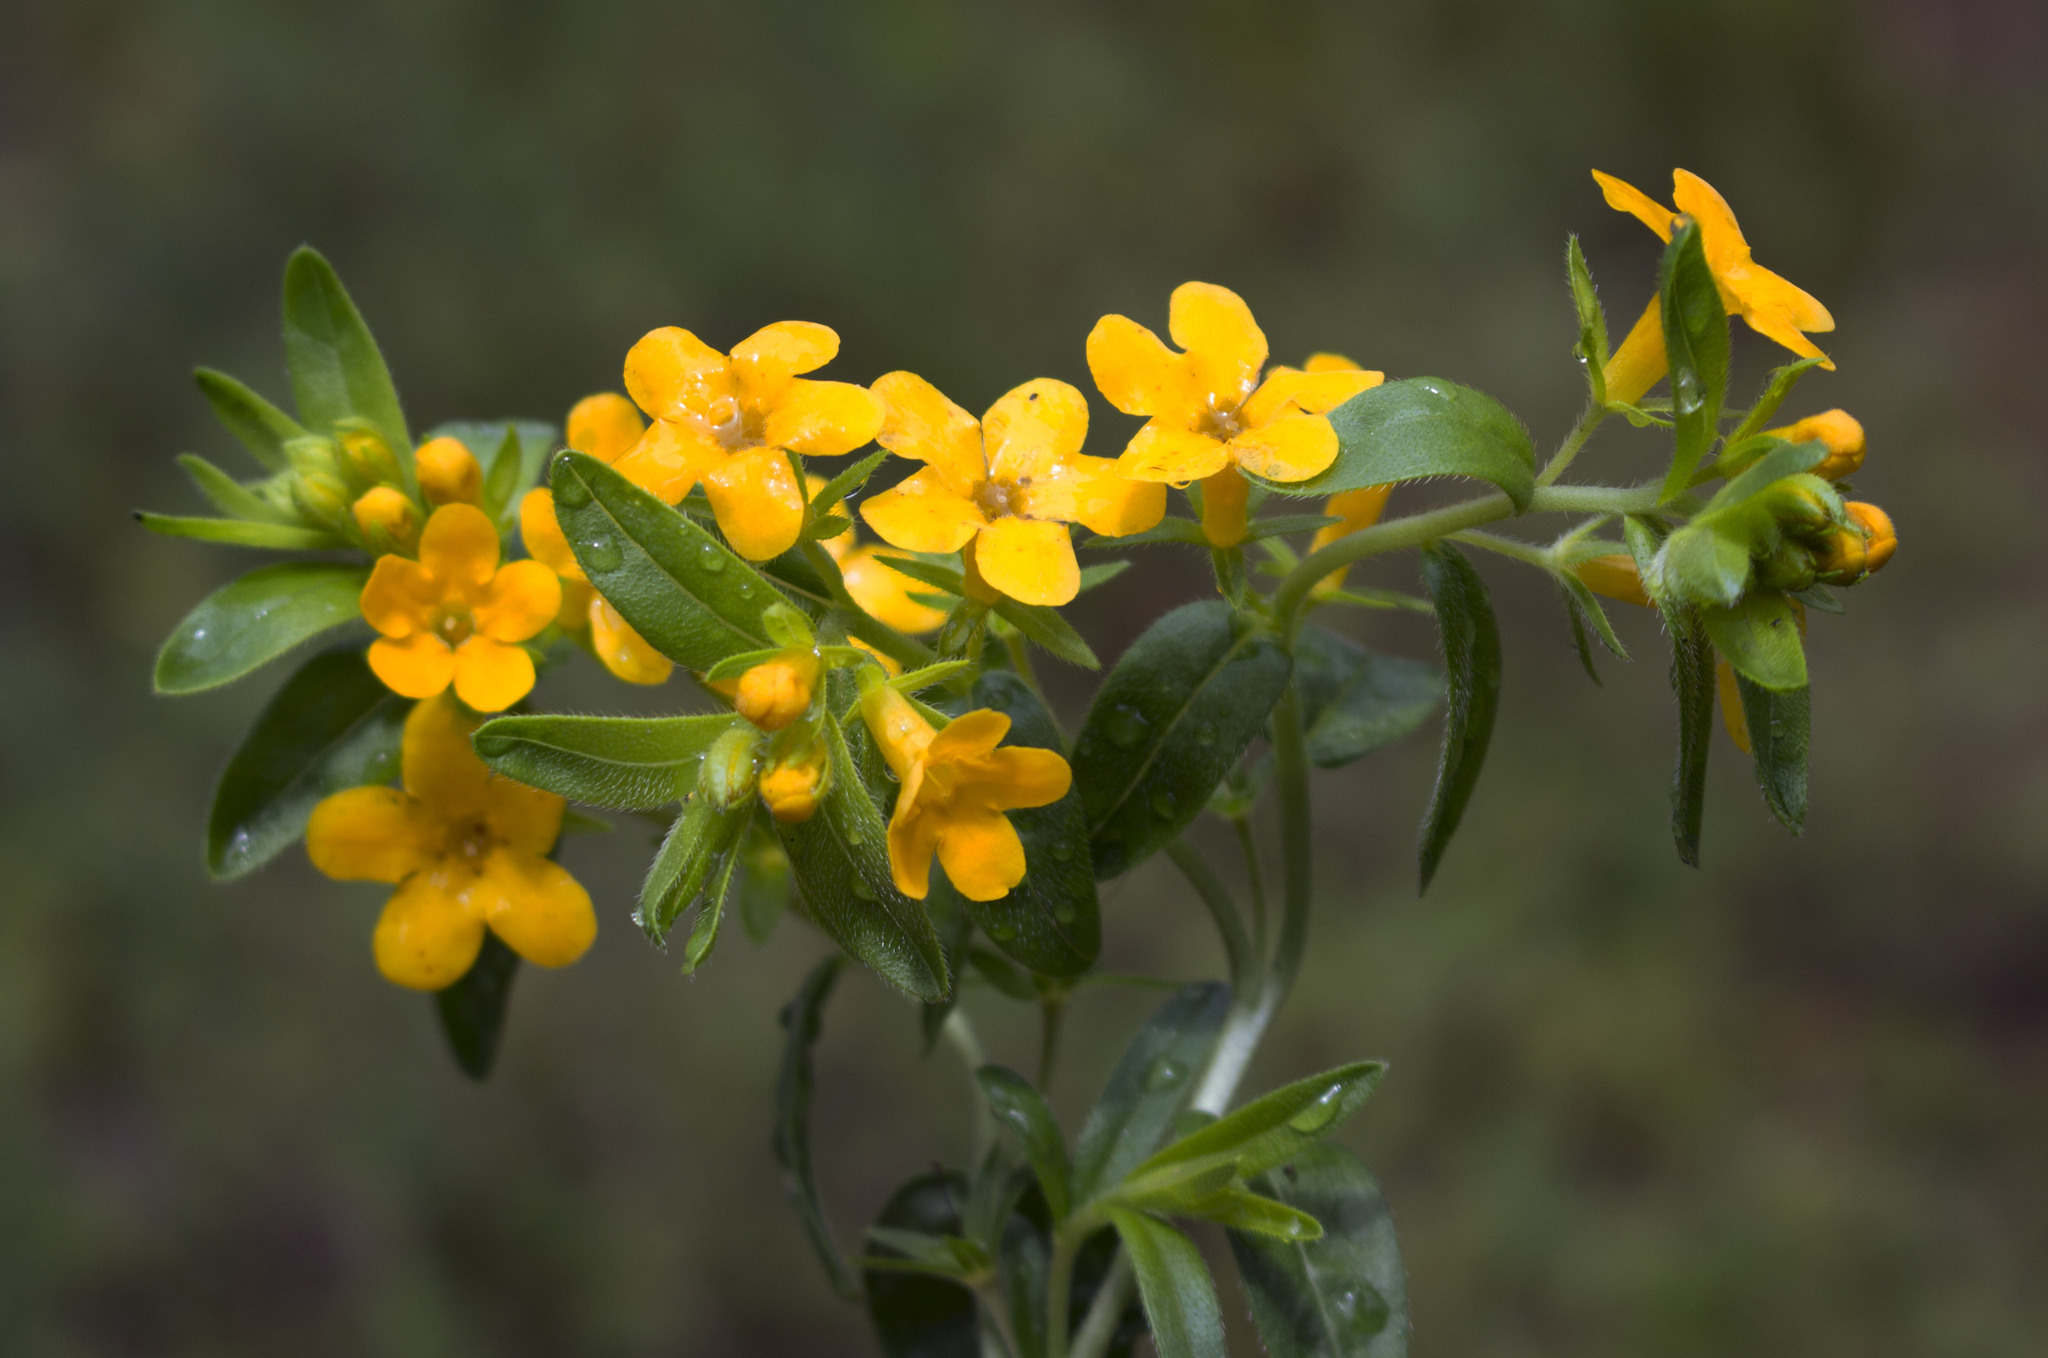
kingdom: Plantae
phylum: Tracheophyta
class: Magnoliopsida
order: Boraginales
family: Boraginaceae
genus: Lithospermum
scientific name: Lithospermum caroliniense
